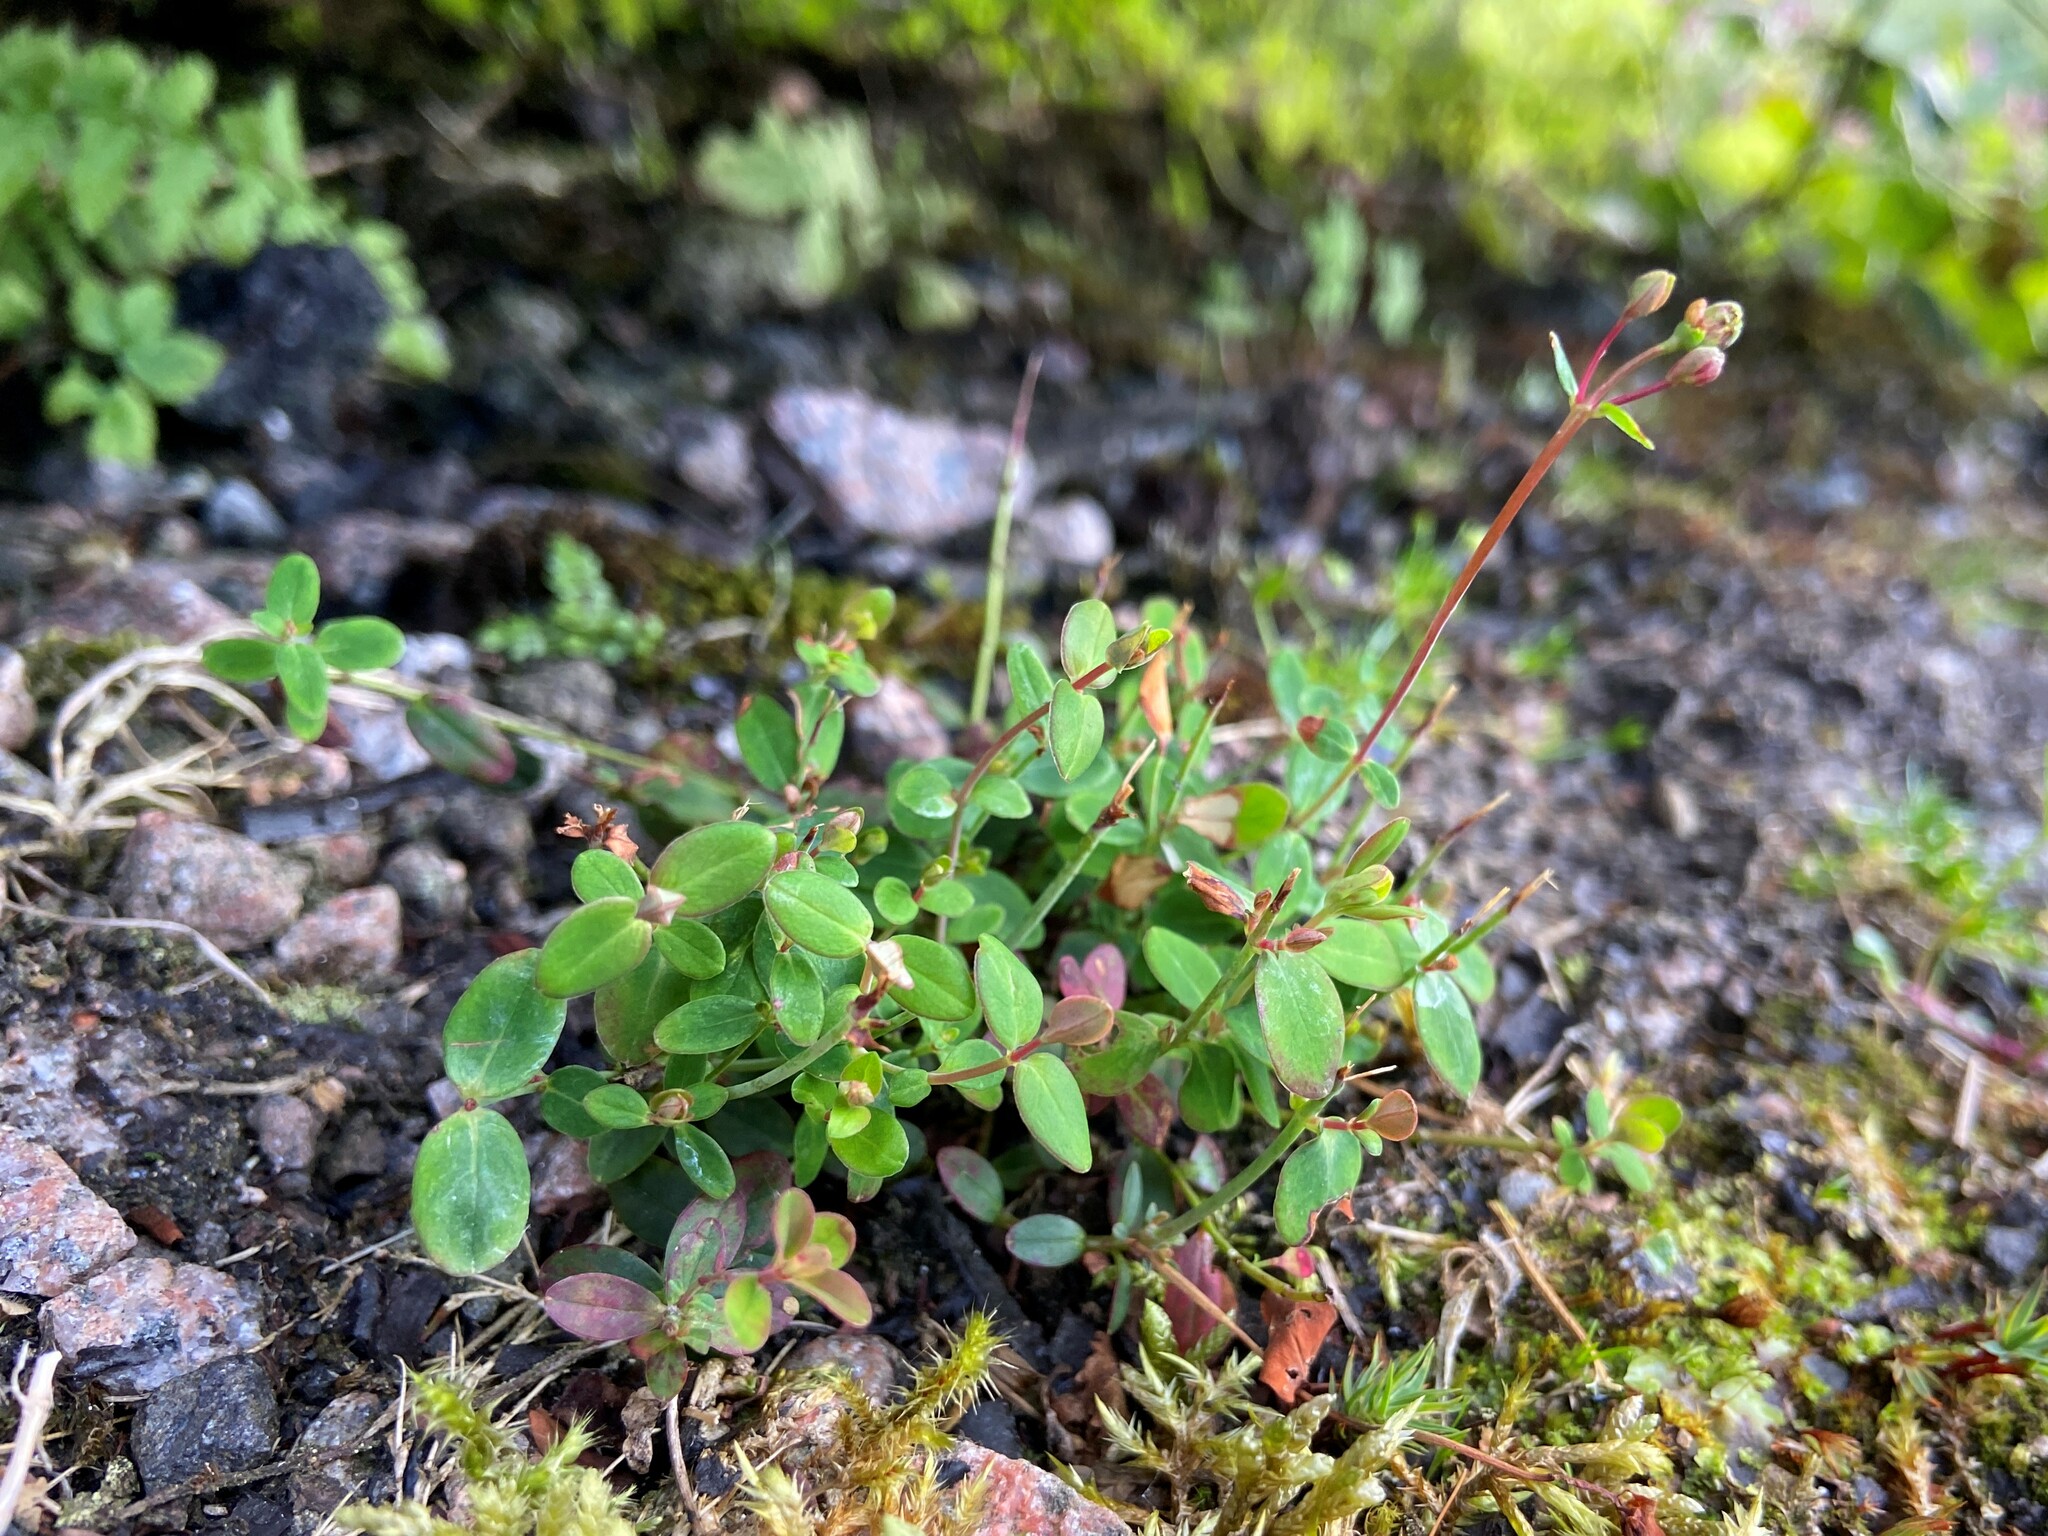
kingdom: Plantae
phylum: Tracheophyta
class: Magnoliopsida
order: Malpighiales
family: Hypericaceae
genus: Hypericum
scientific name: Hypericum pulchrum
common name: Slender st. john's-wort
